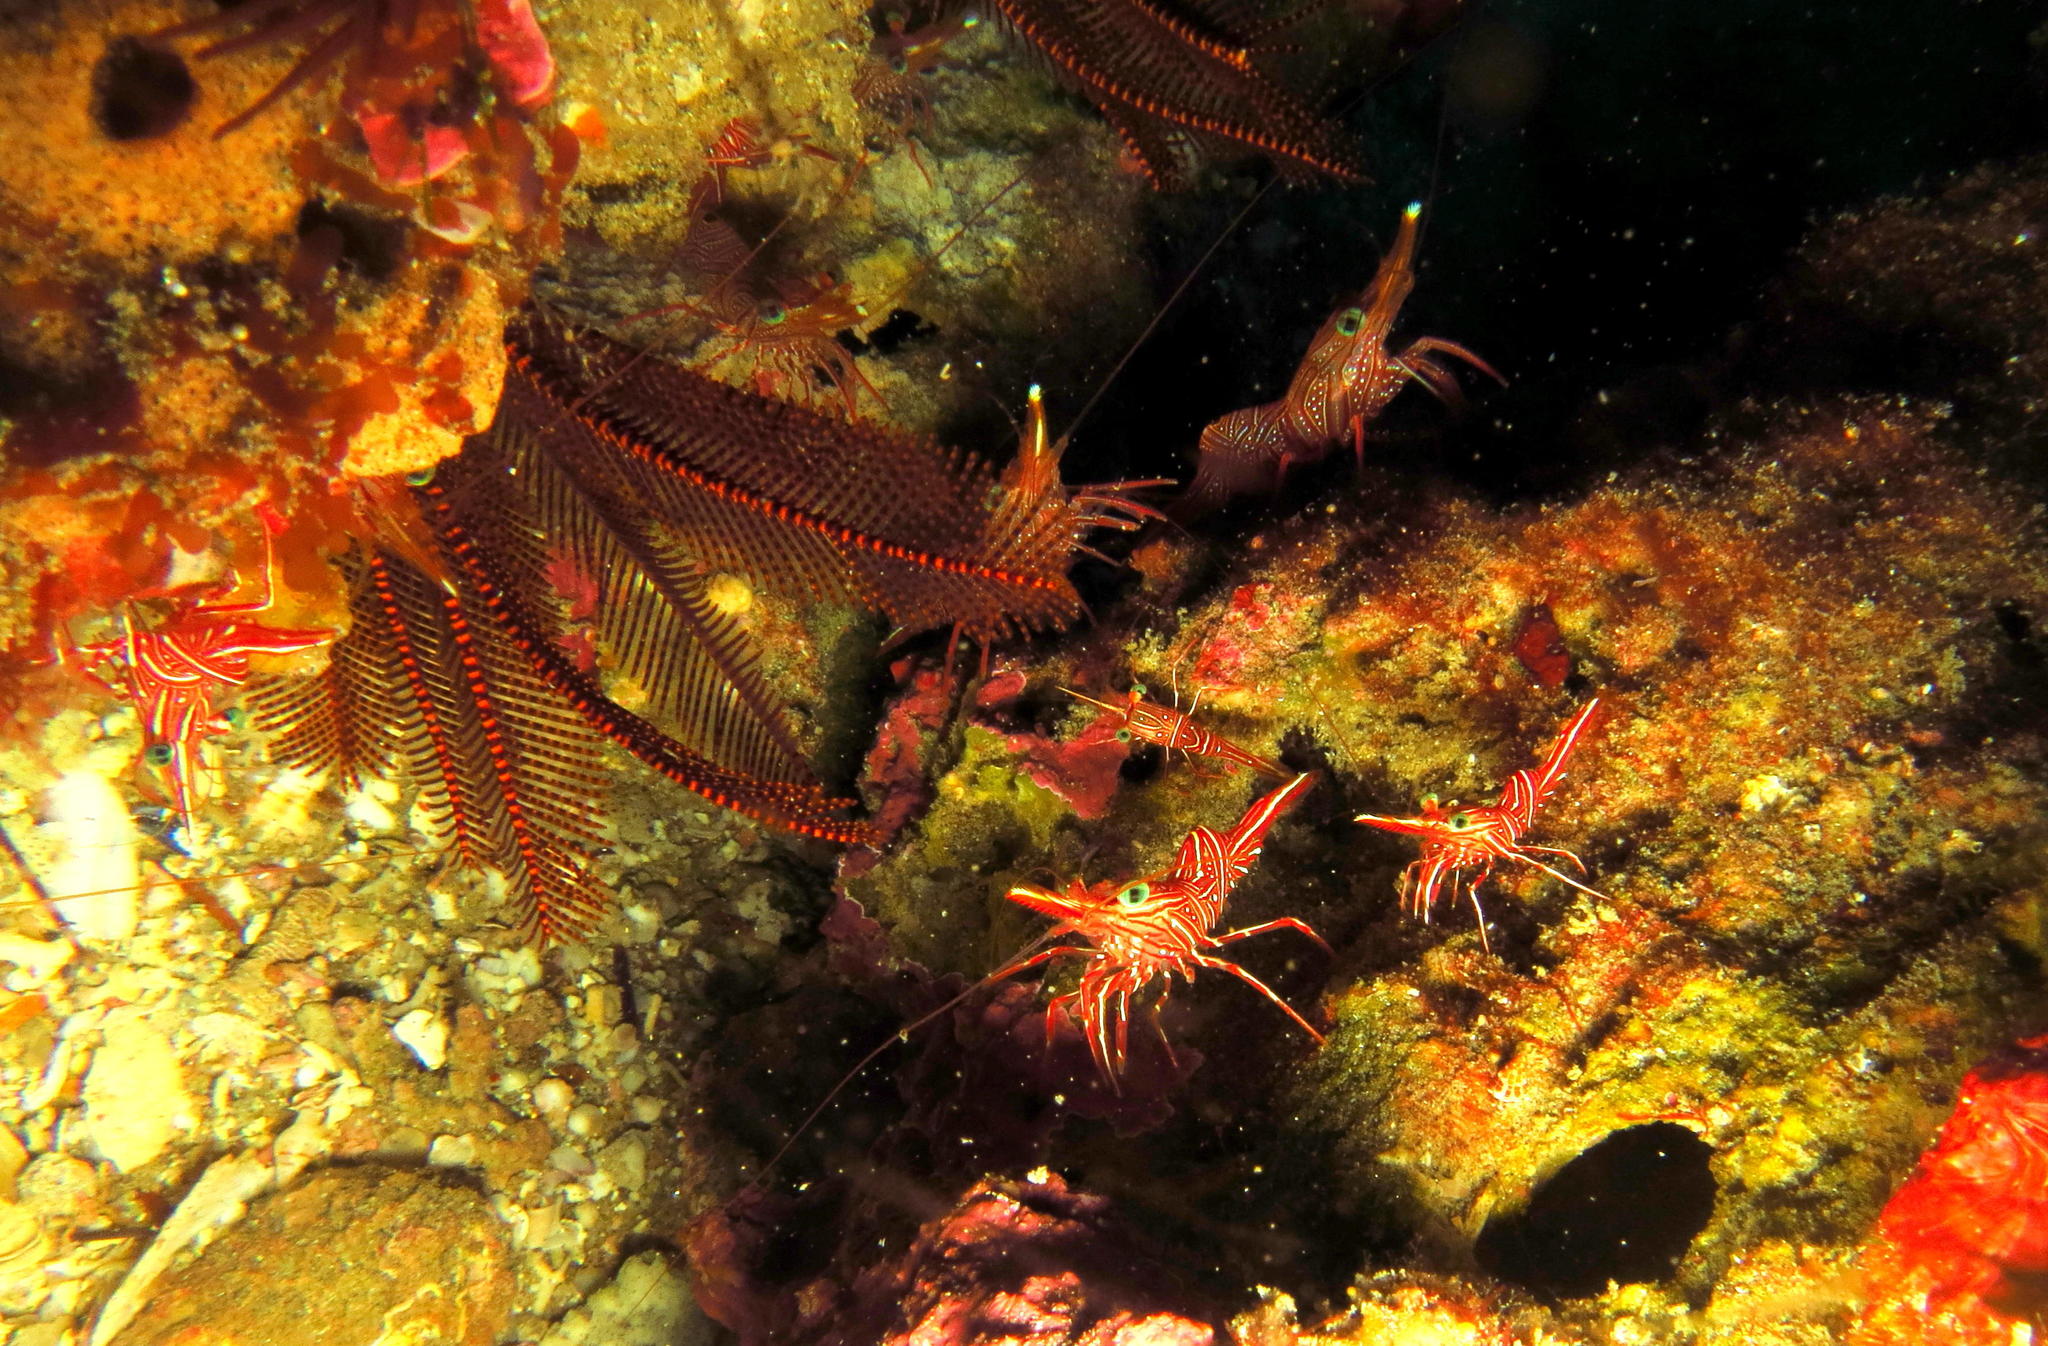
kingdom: Animalia
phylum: Arthropoda
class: Malacostraca
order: Decapoda
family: Rhynchocinetidae
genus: Rhynchocinetes
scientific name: Rhynchocinetes durbanensis
